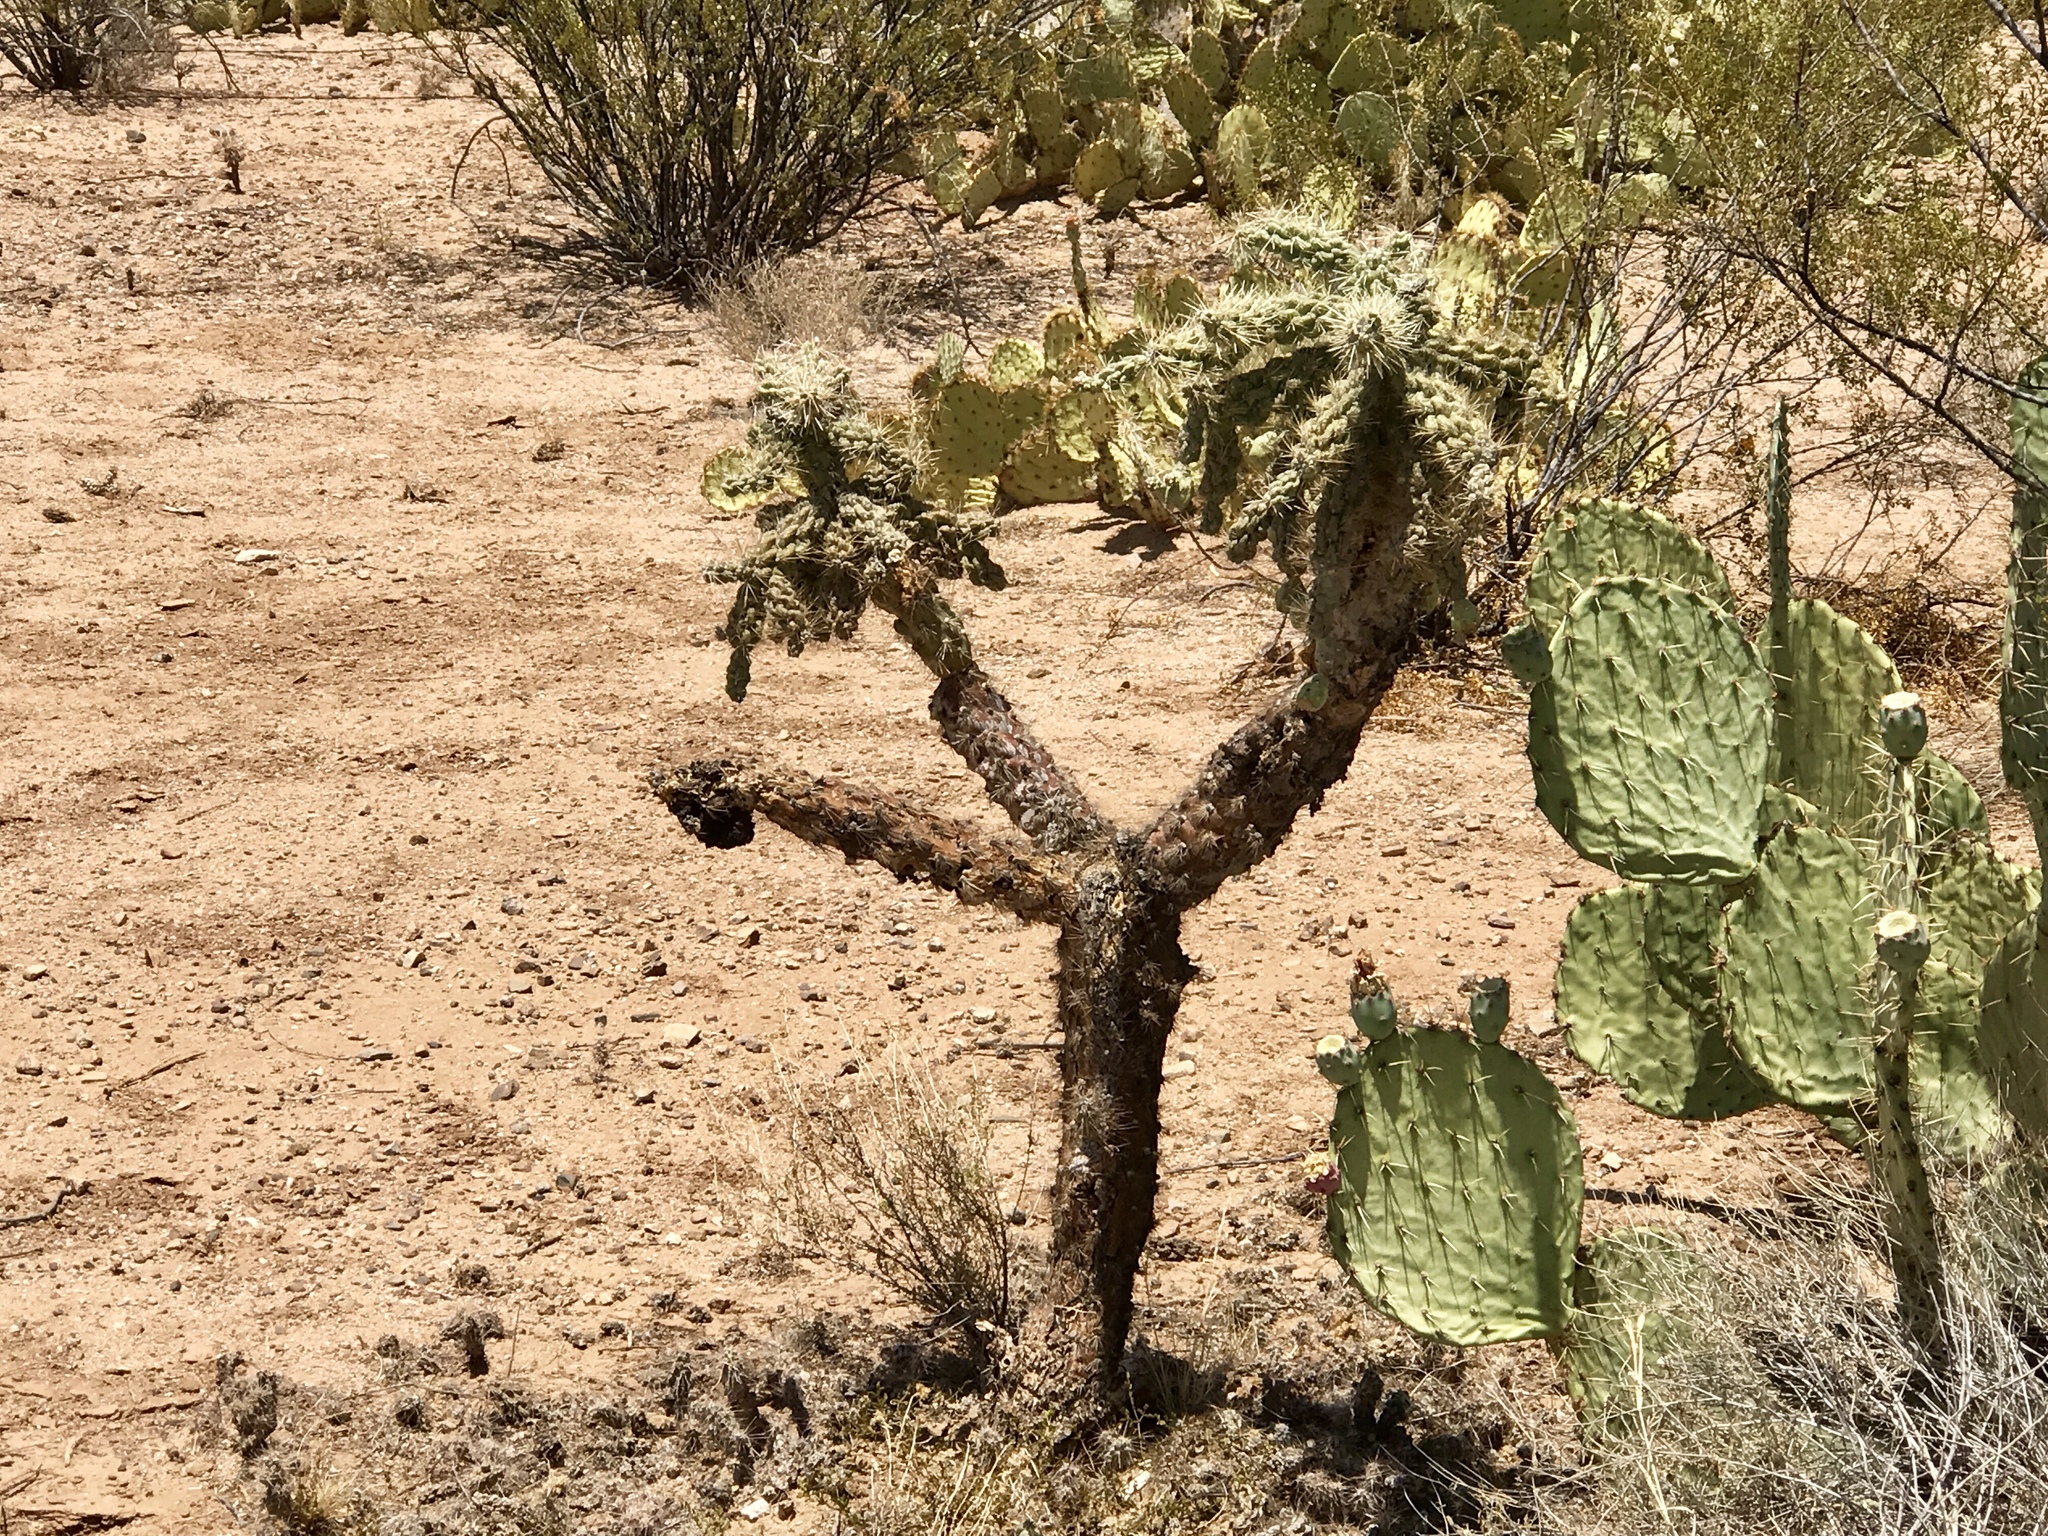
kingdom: Plantae
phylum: Tracheophyta
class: Magnoliopsida
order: Caryophyllales
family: Cactaceae
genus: Cylindropuntia
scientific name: Cylindropuntia fulgida
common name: Jumping cholla
